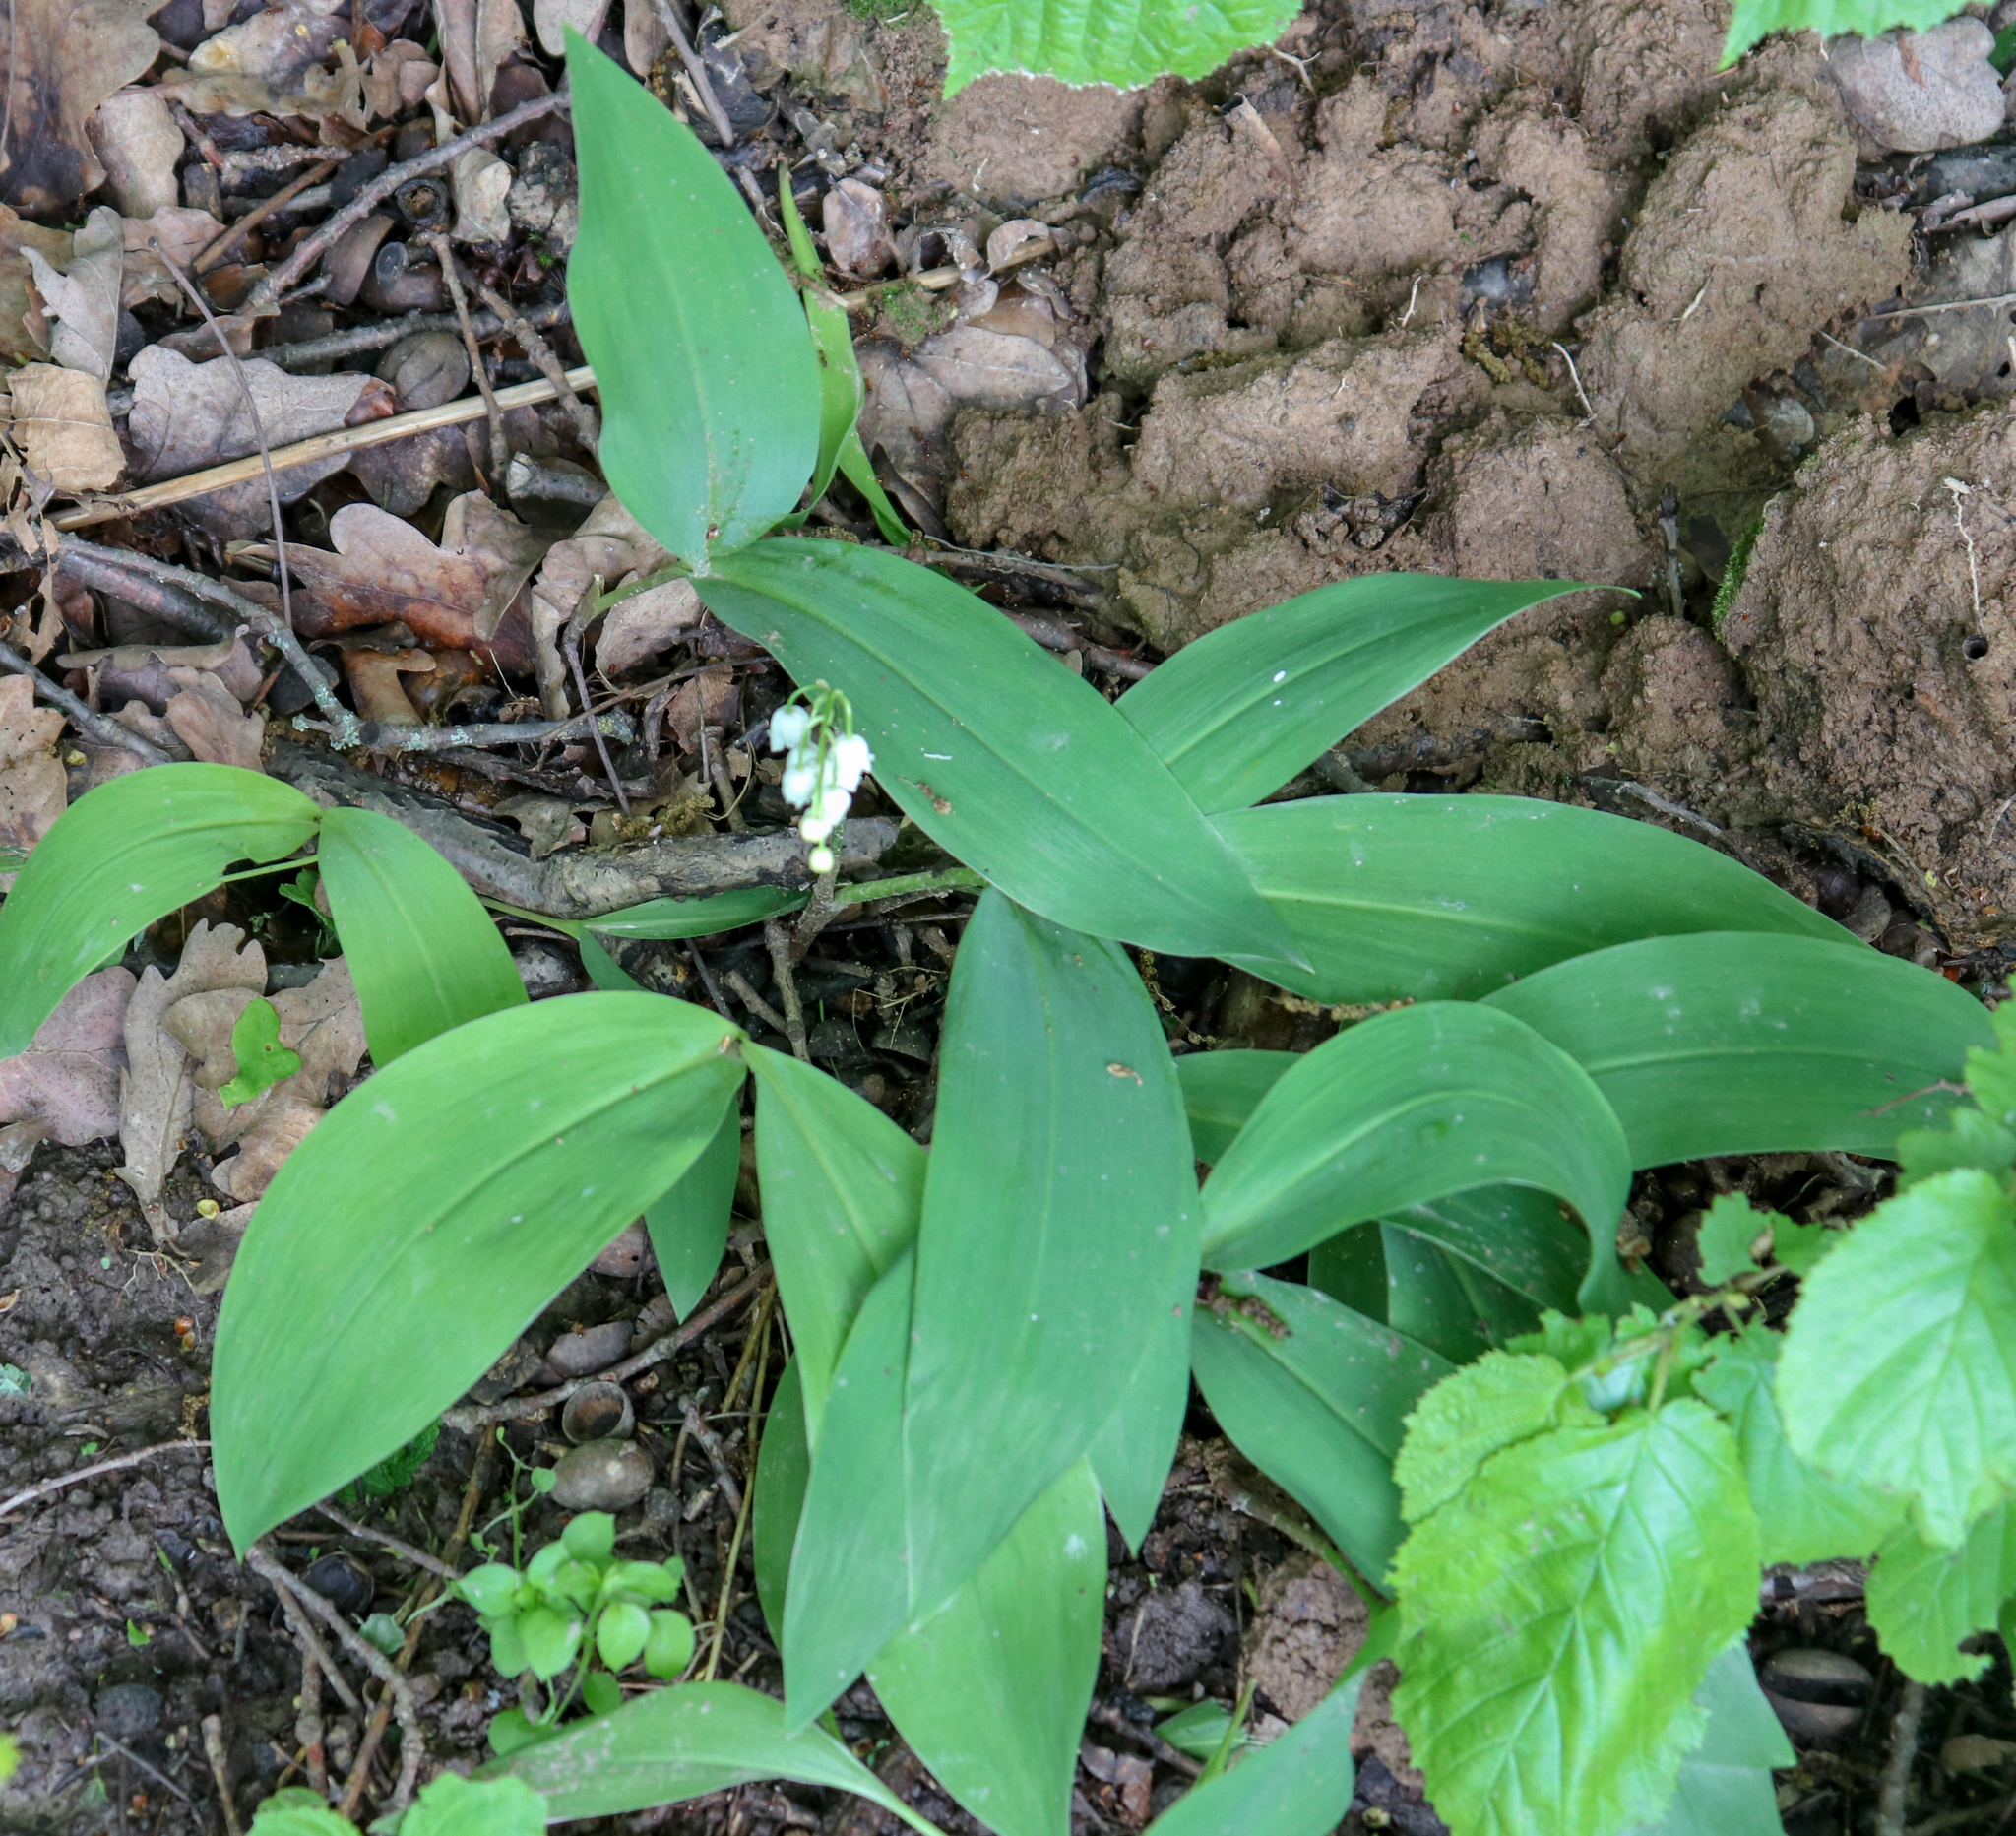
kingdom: Plantae
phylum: Tracheophyta
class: Liliopsida
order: Asparagales
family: Asparagaceae
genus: Convallaria
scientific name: Convallaria majalis
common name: Lily-of-the-valley
